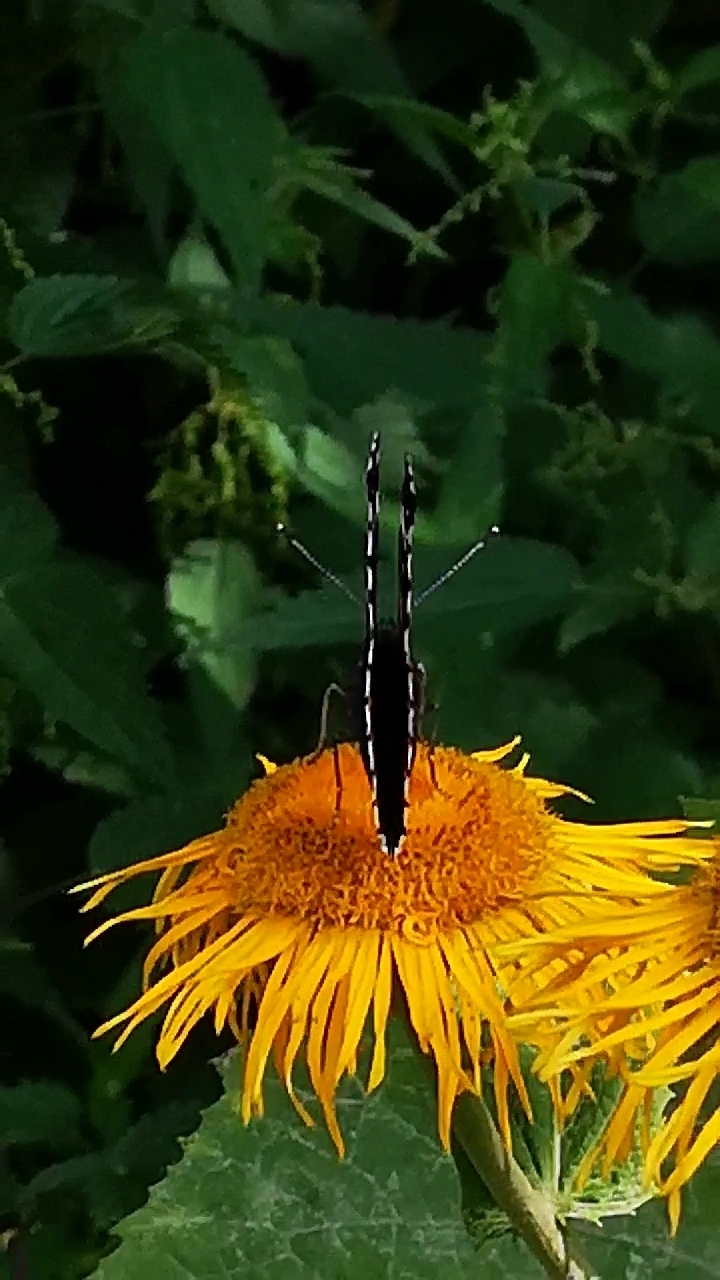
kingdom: Animalia
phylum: Arthropoda
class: Insecta
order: Lepidoptera
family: Nymphalidae
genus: Vanessa
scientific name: Vanessa atalanta
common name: Red admiral
